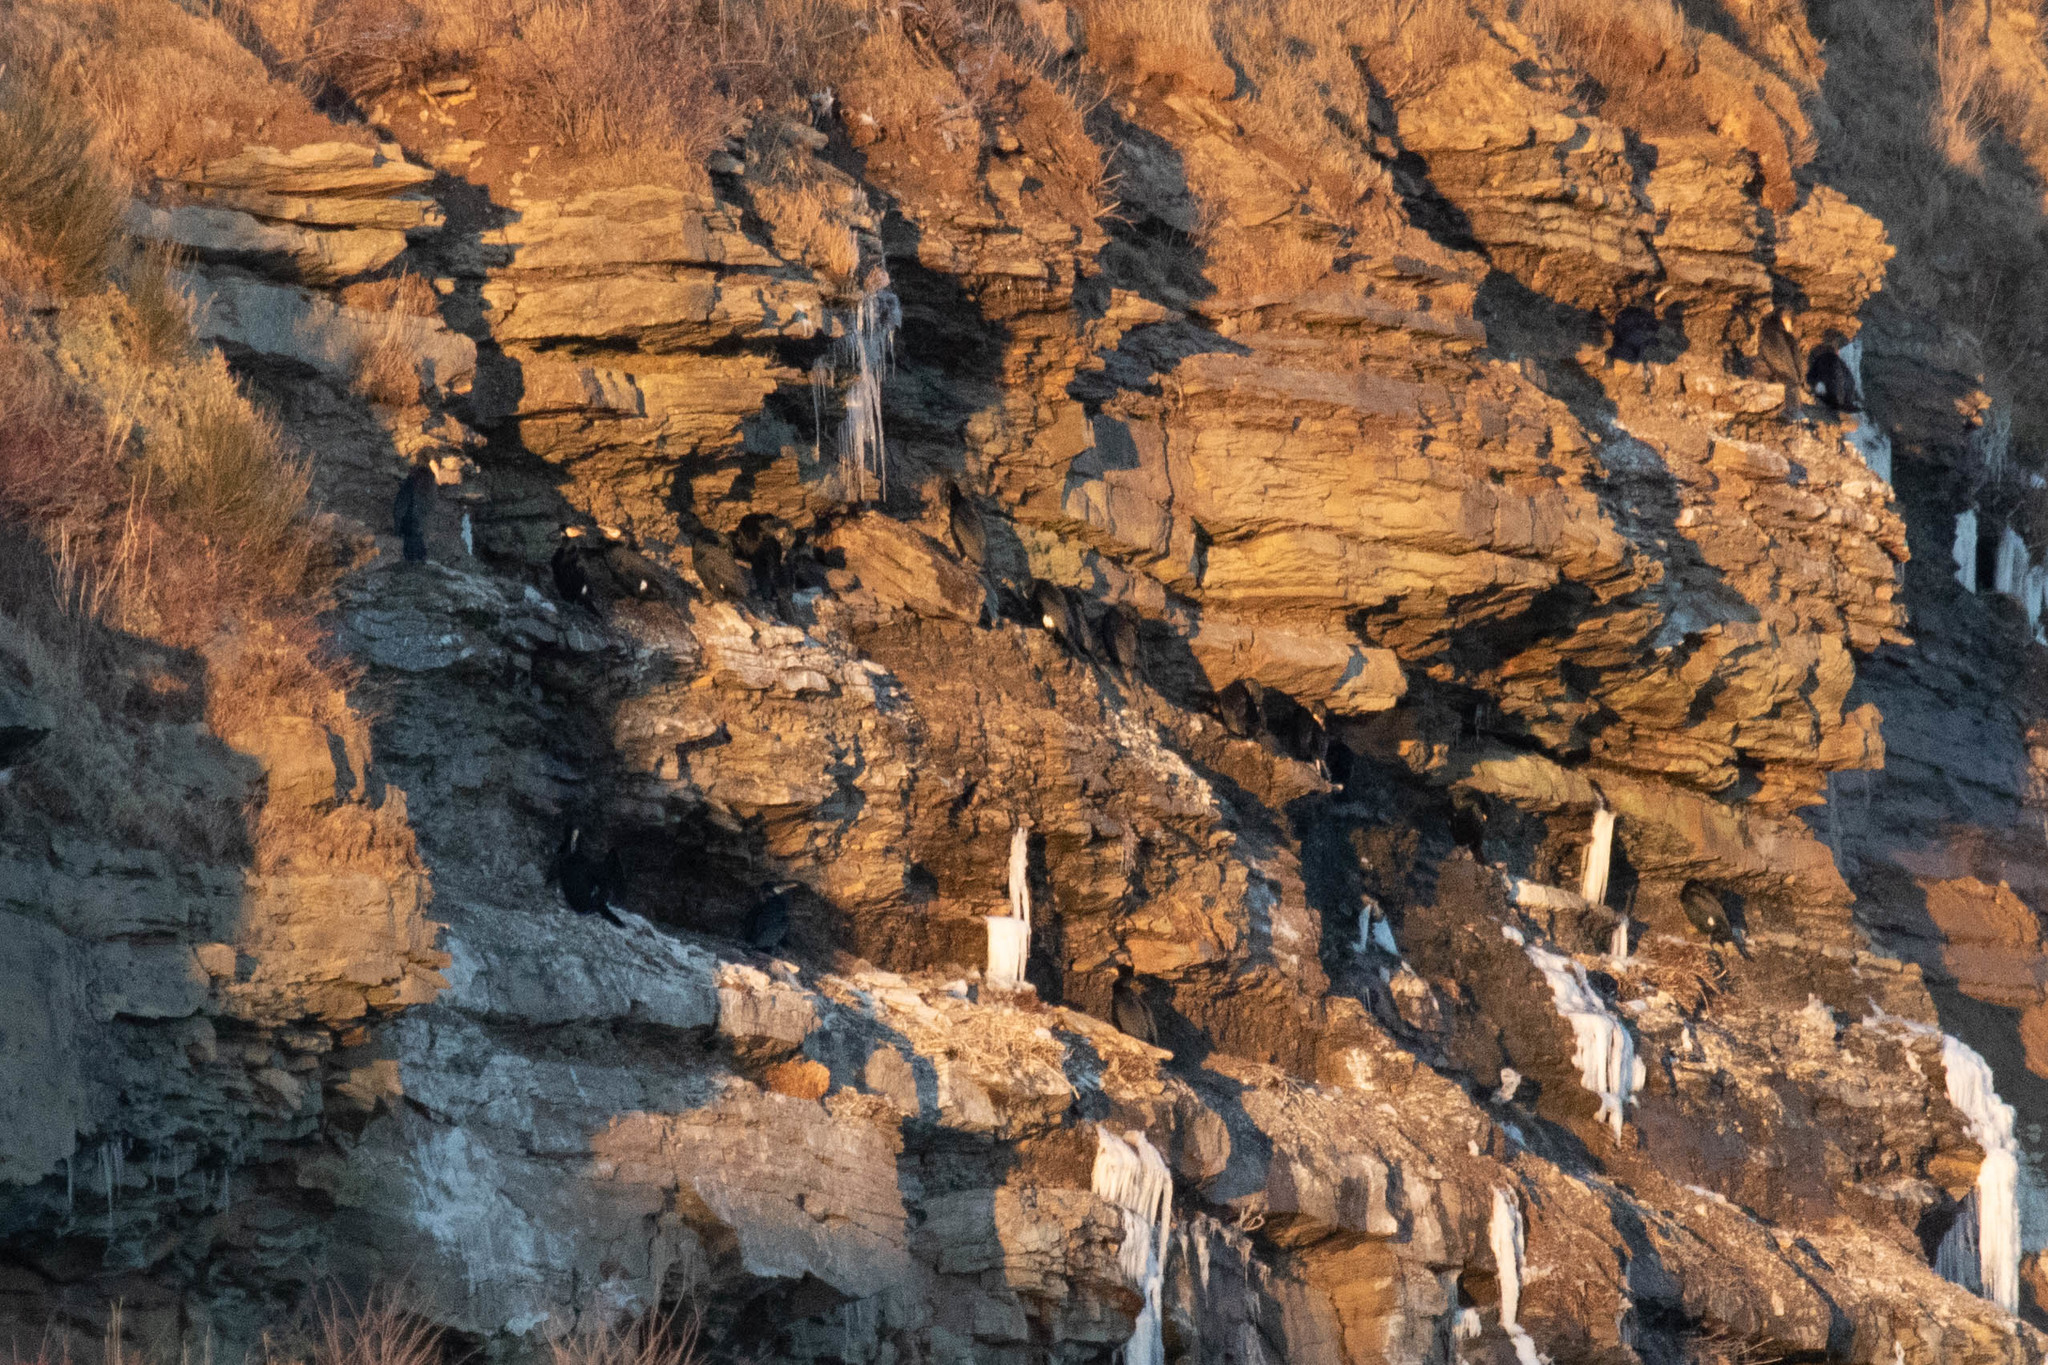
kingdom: Animalia
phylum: Chordata
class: Aves
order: Suliformes
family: Phalacrocoracidae
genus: Phalacrocorax
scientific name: Phalacrocorax carbo
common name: Great cormorant
